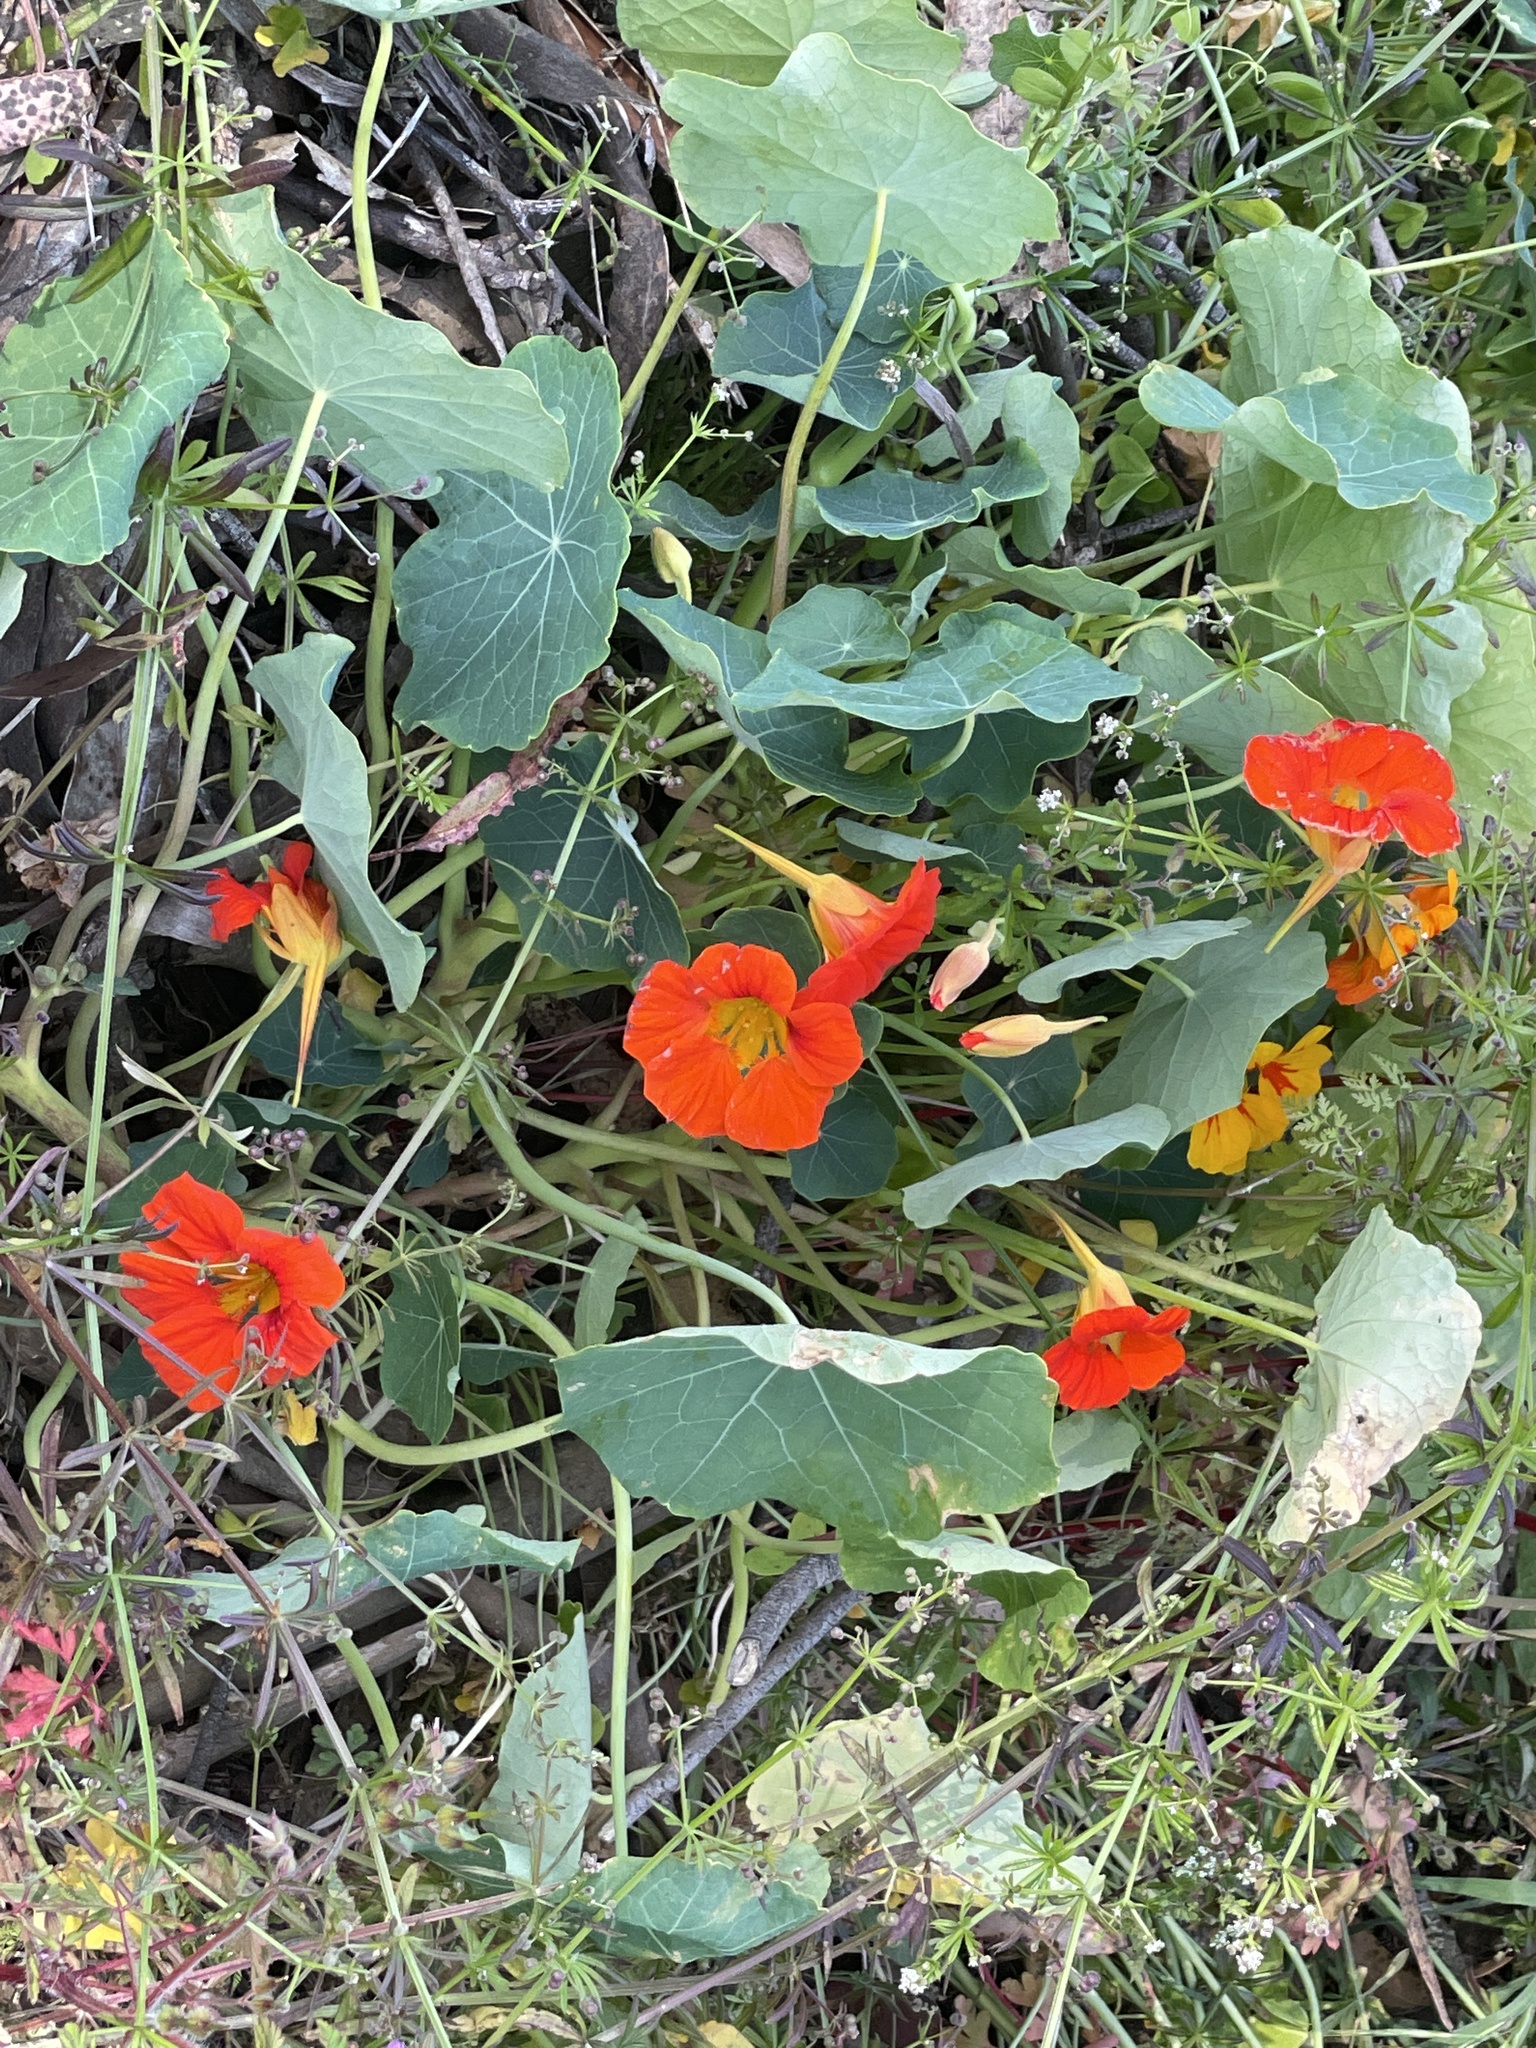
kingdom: Plantae
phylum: Tracheophyta
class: Magnoliopsida
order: Brassicales
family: Tropaeolaceae
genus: Tropaeolum
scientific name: Tropaeolum majus
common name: Nasturtium
